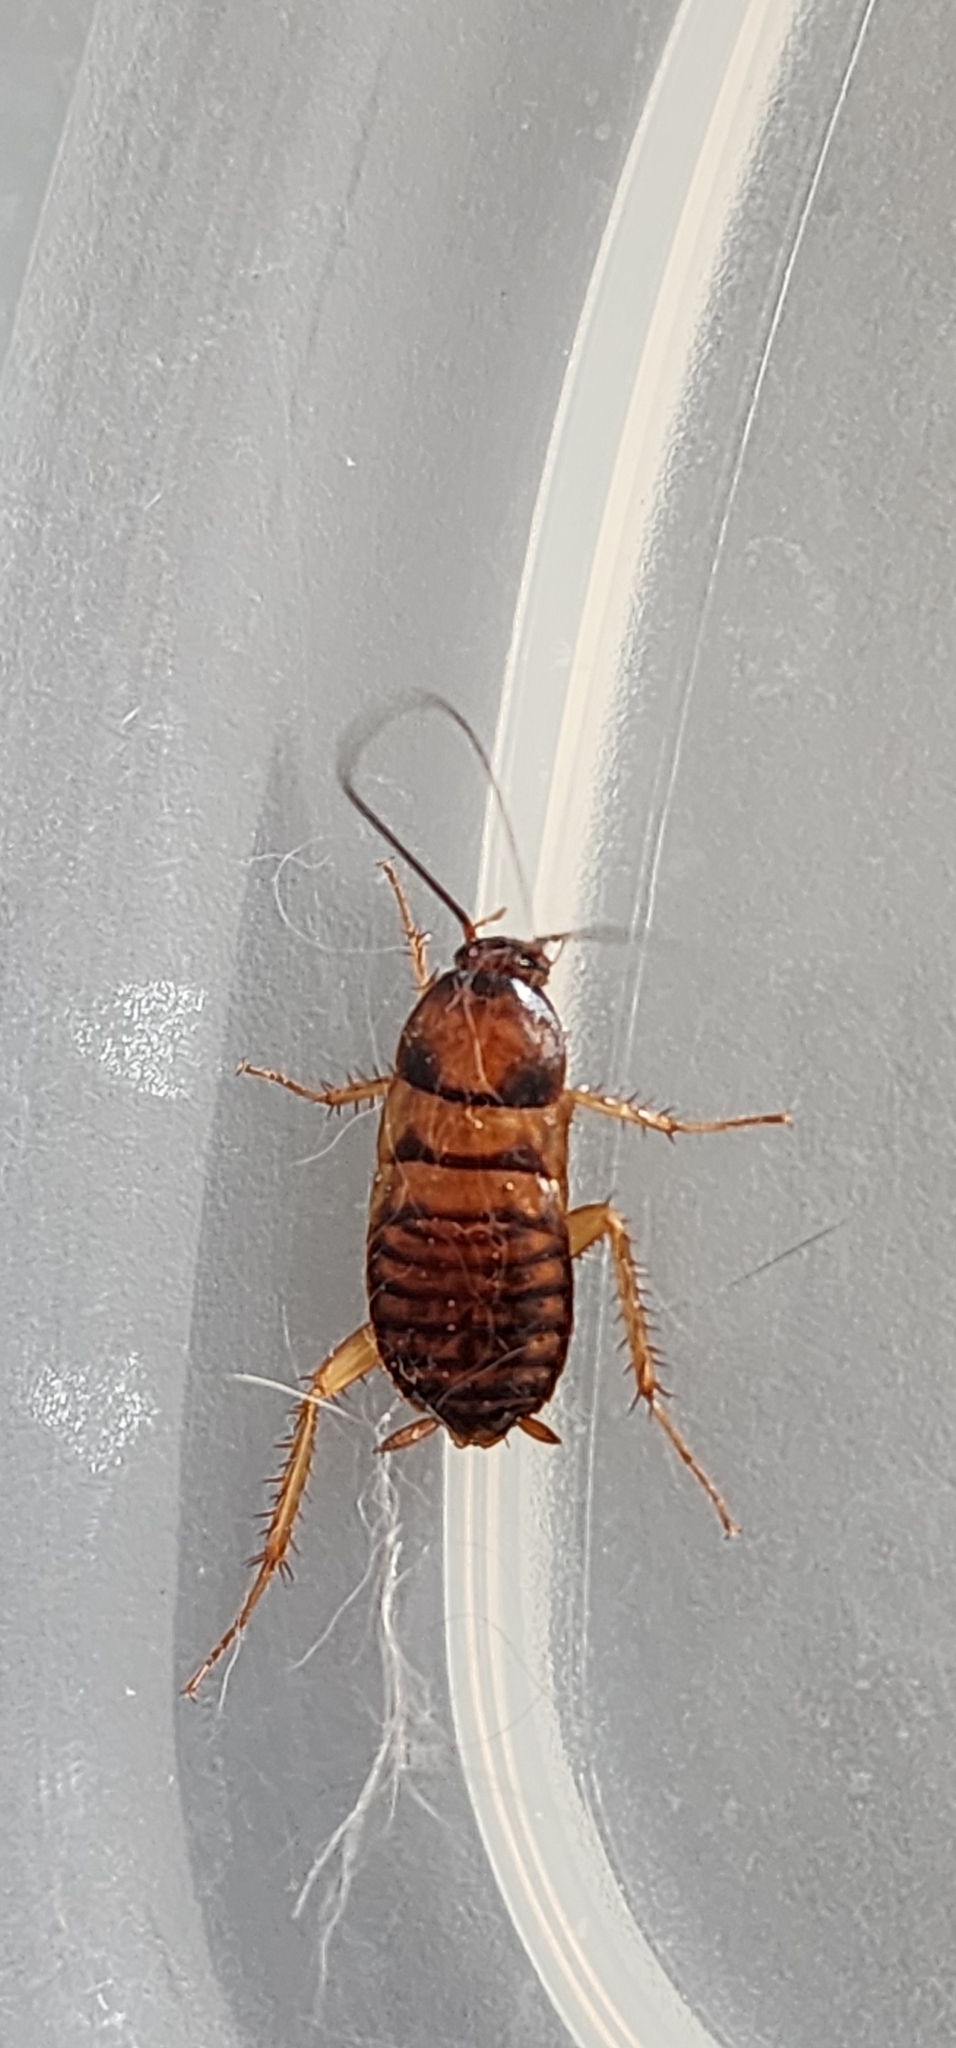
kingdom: Animalia
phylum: Arthropoda
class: Insecta
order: Blattodea
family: Blattidae
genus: Periplaneta
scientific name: Periplaneta americana
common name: American cockroach
